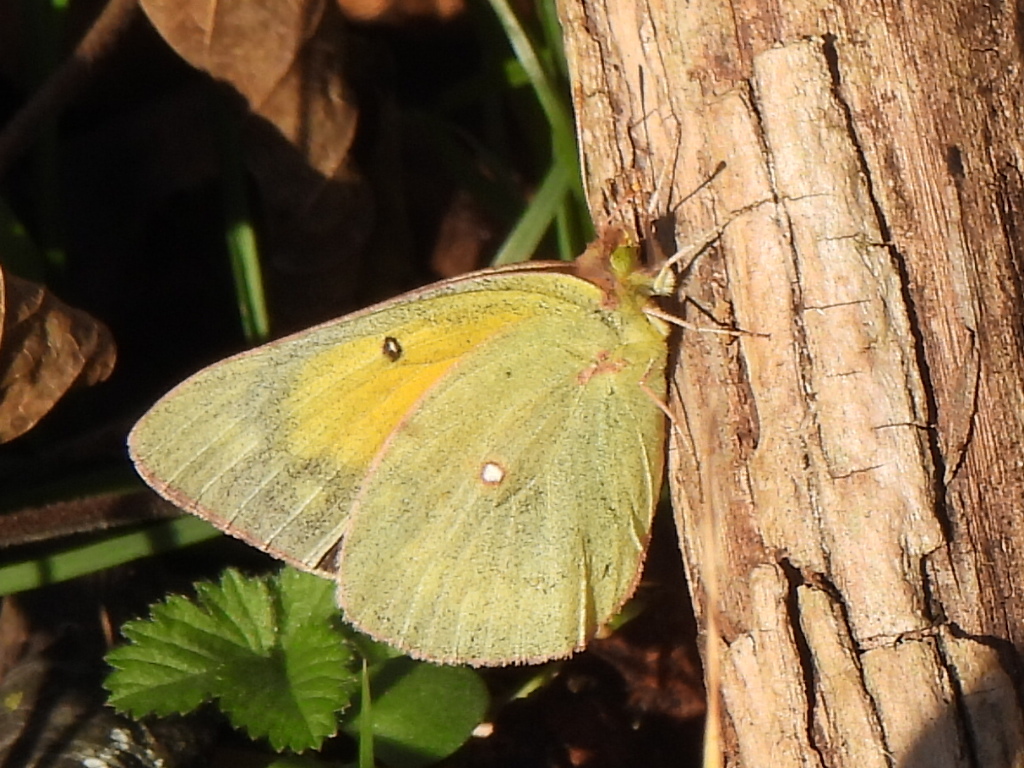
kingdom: Animalia
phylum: Arthropoda
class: Insecta
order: Lepidoptera
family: Pieridae
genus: Colias
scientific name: Colias eurytheme
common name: Alfalfa butterfly
